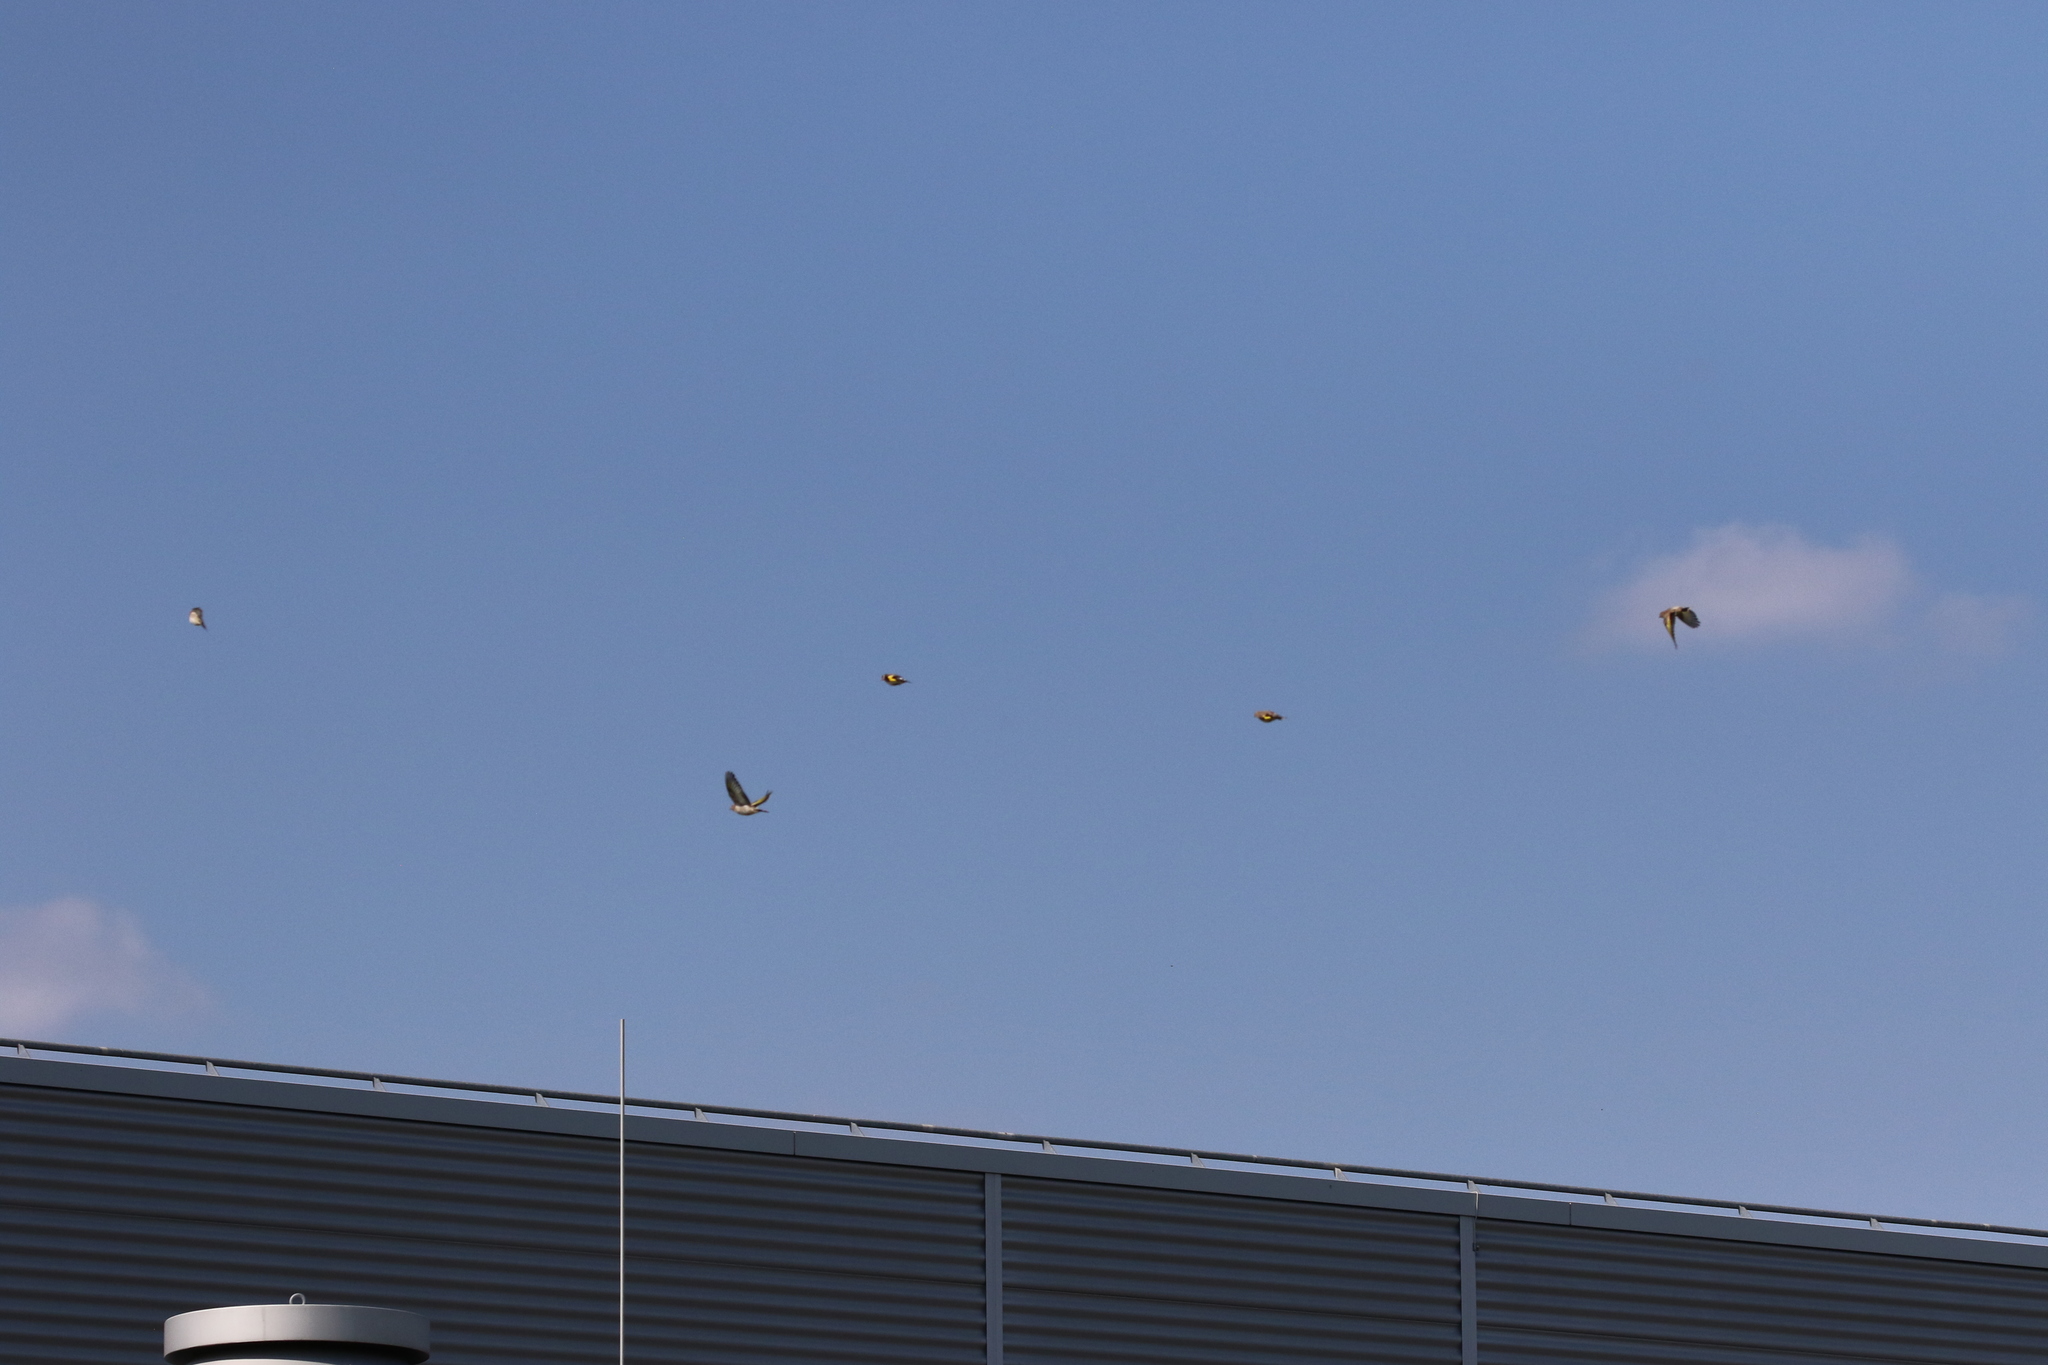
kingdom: Animalia
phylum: Chordata
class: Aves
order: Passeriformes
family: Fringillidae
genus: Carduelis
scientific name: Carduelis carduelis
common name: European goldfinch
